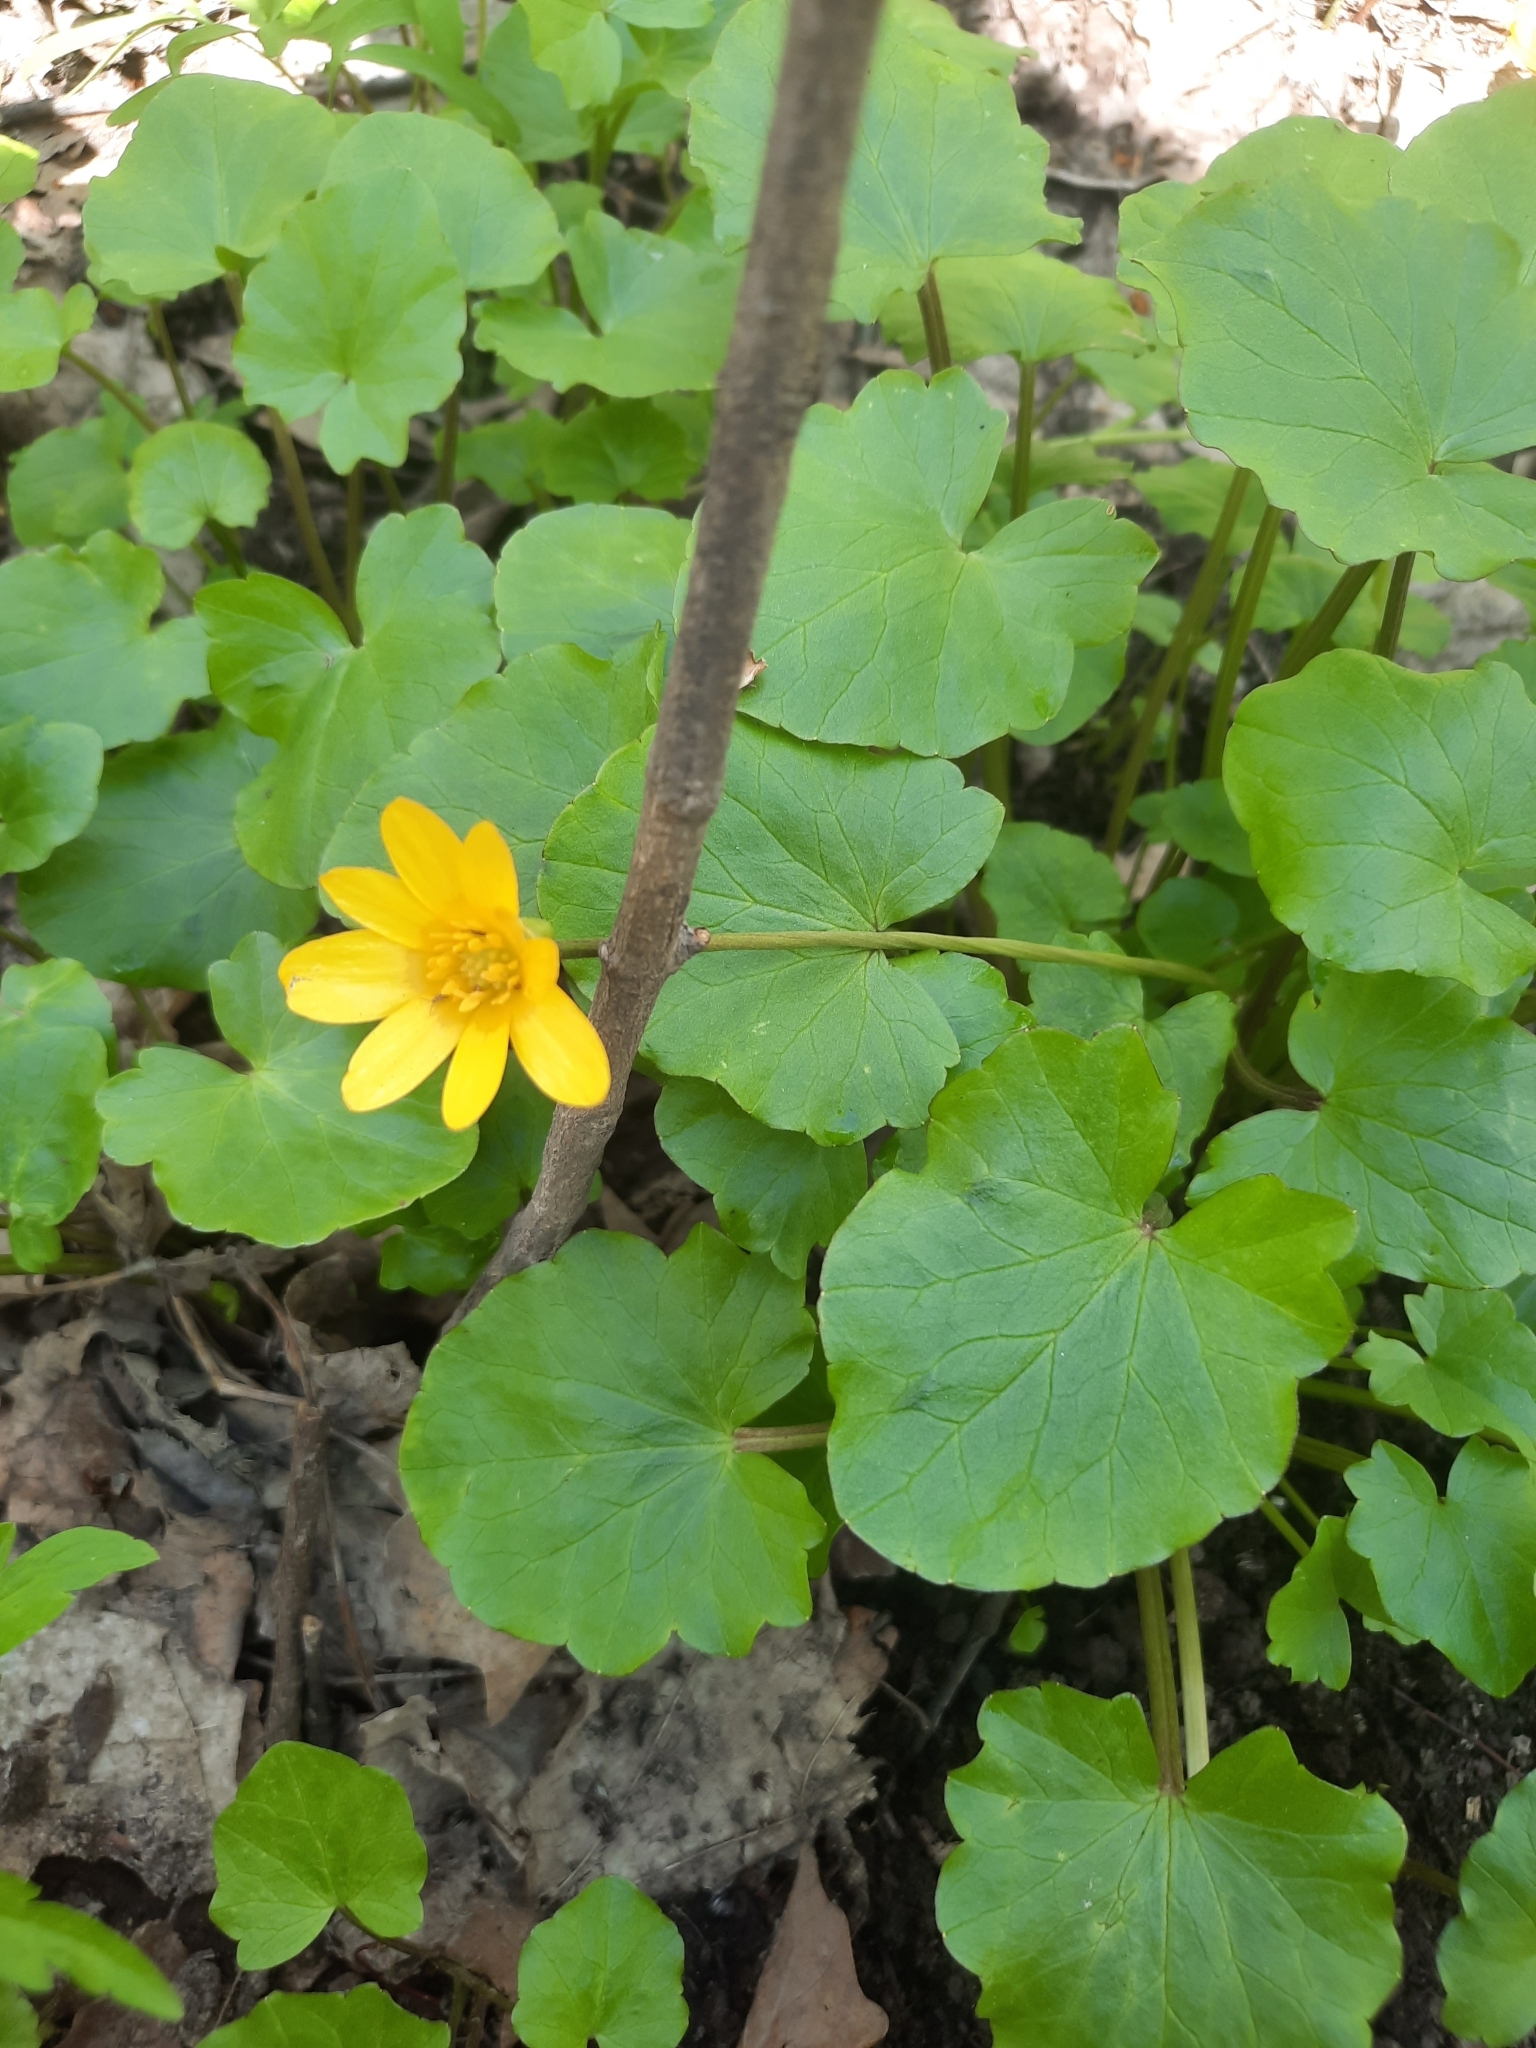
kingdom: Plantae
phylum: Tracheophyta
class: Magnoliopsida
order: Ranunculales
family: Ranunculaceae
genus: Ficaria
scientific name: Ficaria verna
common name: Lesser celandine
